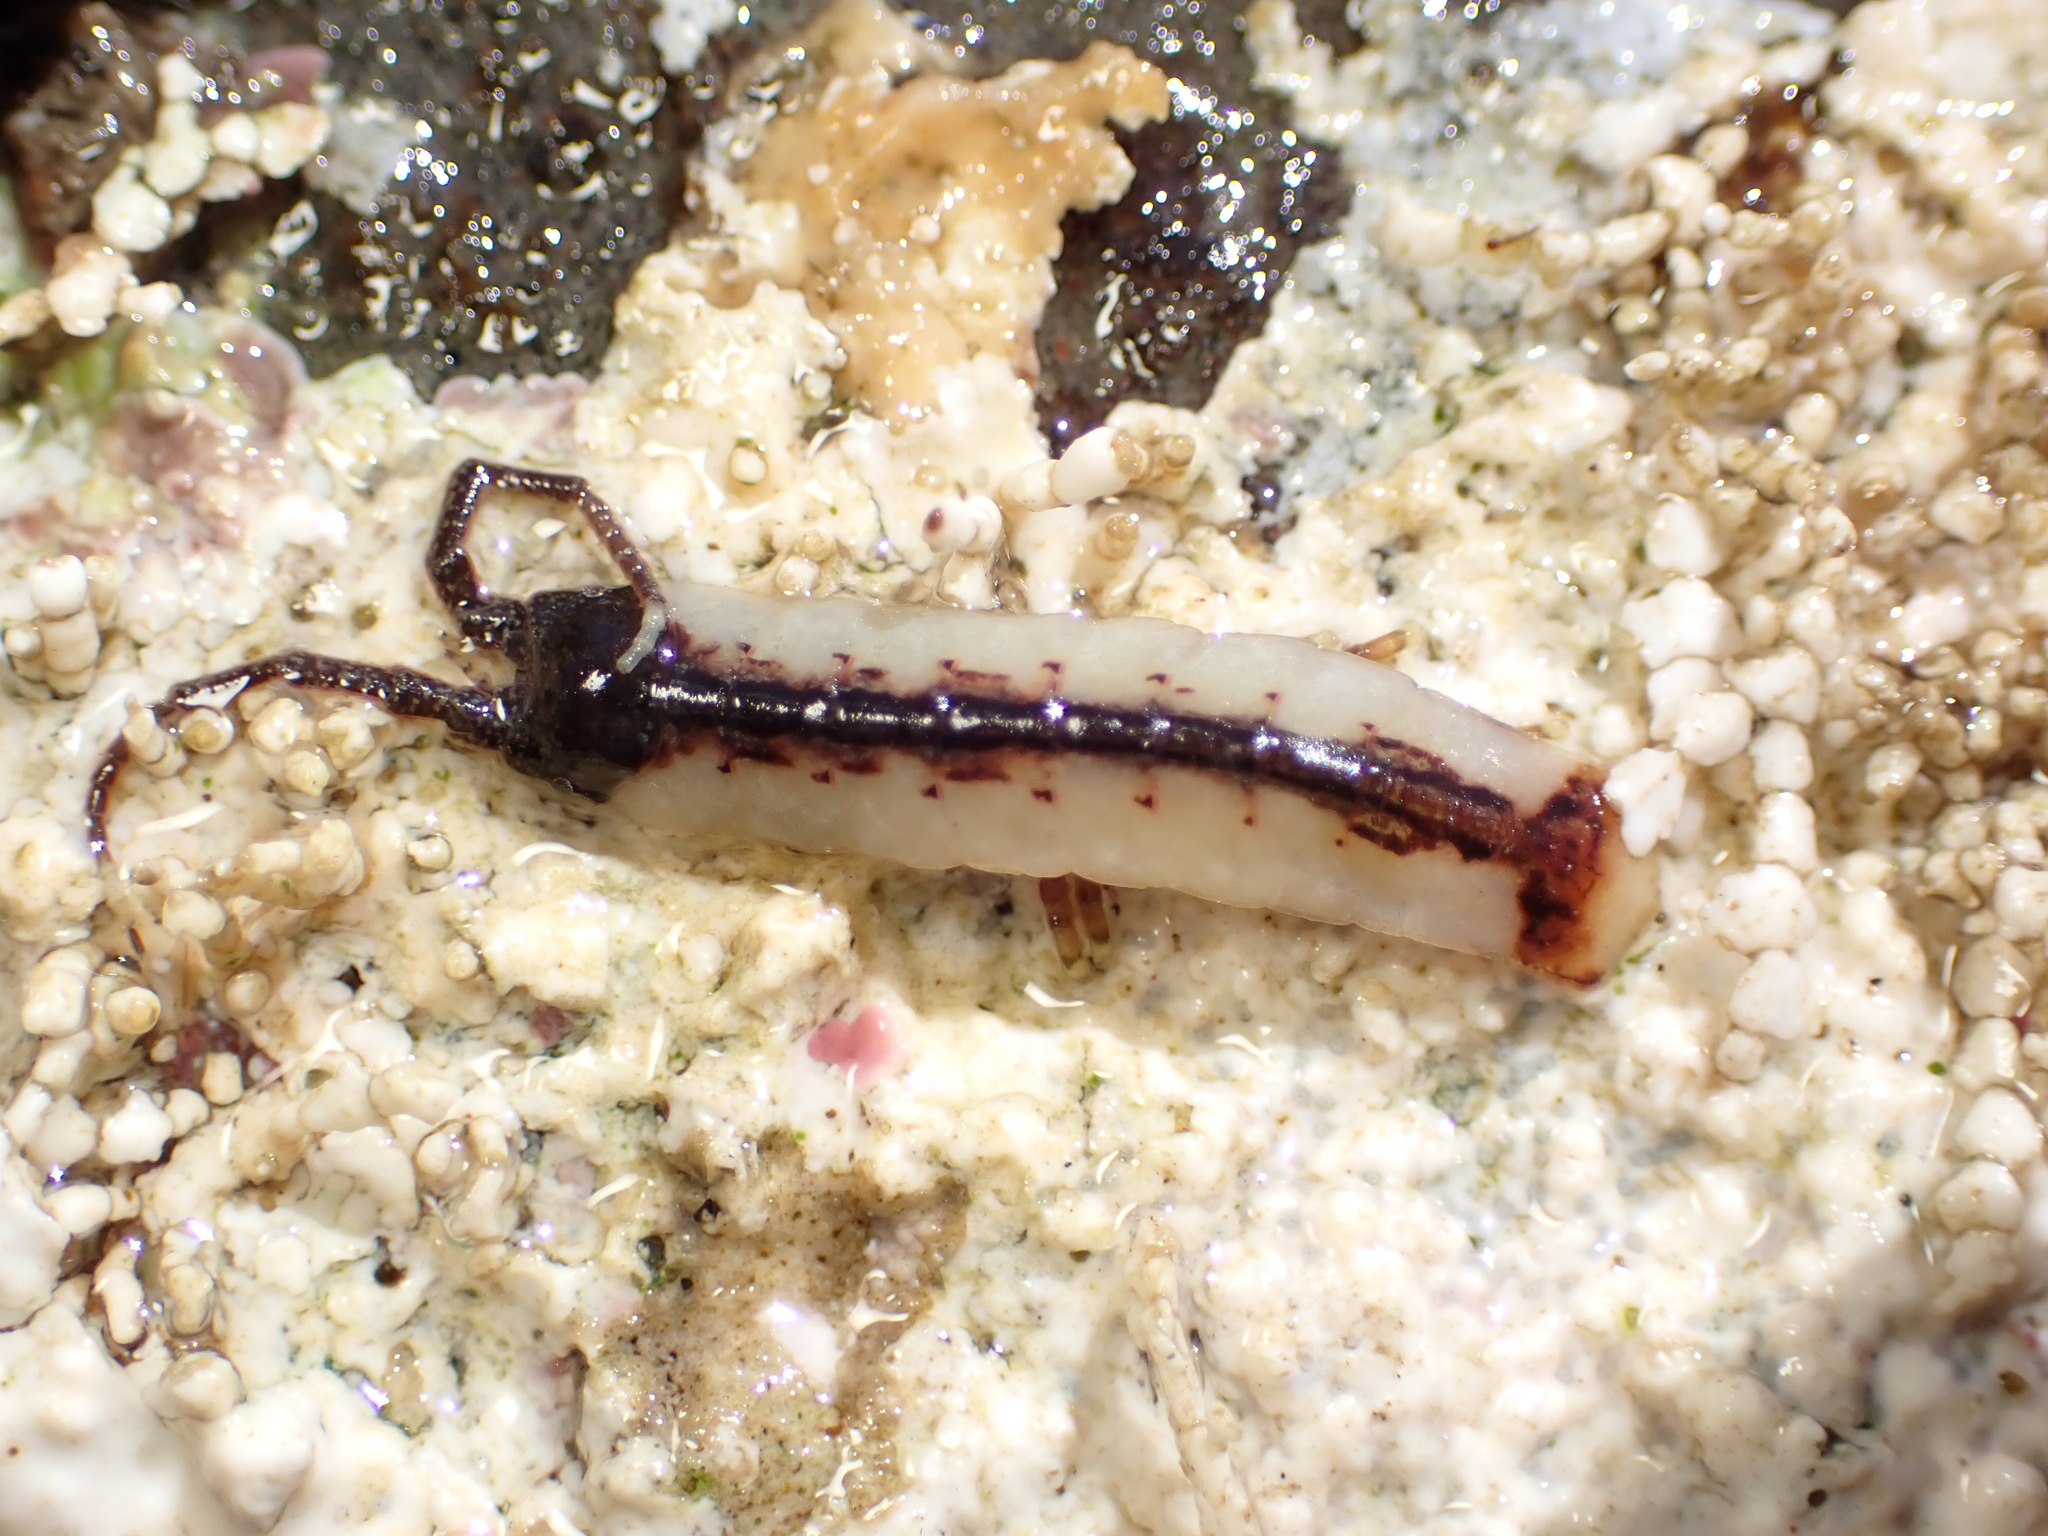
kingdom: Animalia
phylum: Arthropoda
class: Malacostraca
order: Isopoda
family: Idoteidae
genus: Idotea
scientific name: Idotea urotoma
